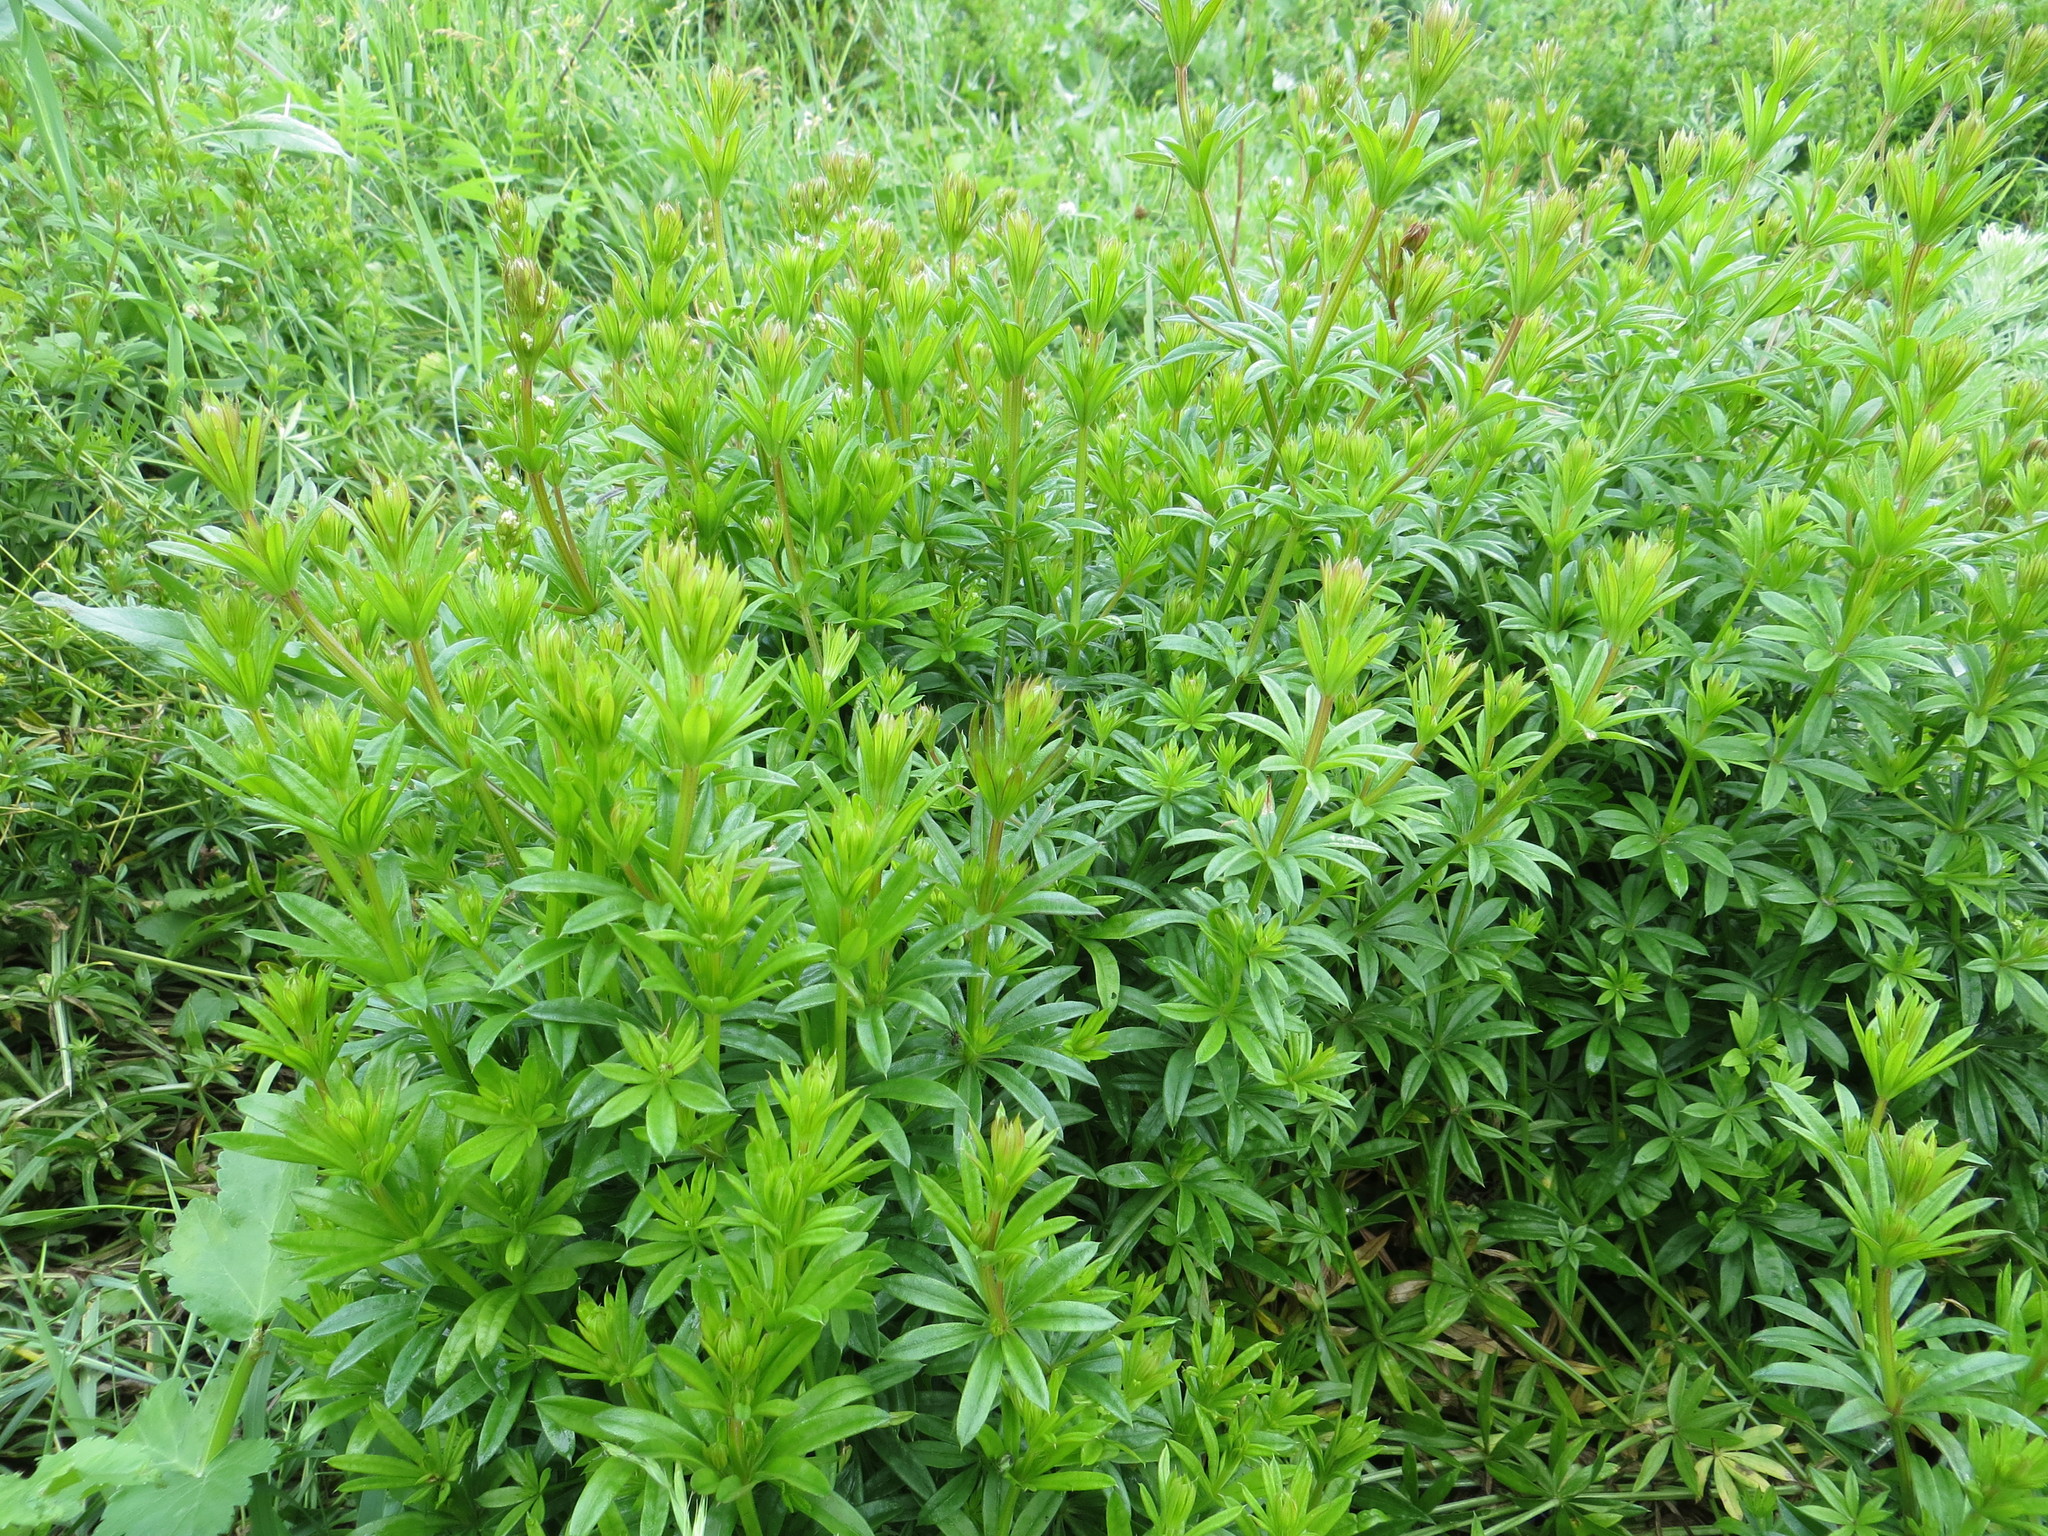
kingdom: Plantae
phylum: Tracheophyta
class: Magnoliopsida
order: Gentianales
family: Rubiaceae
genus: Galium
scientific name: Galium rivale
